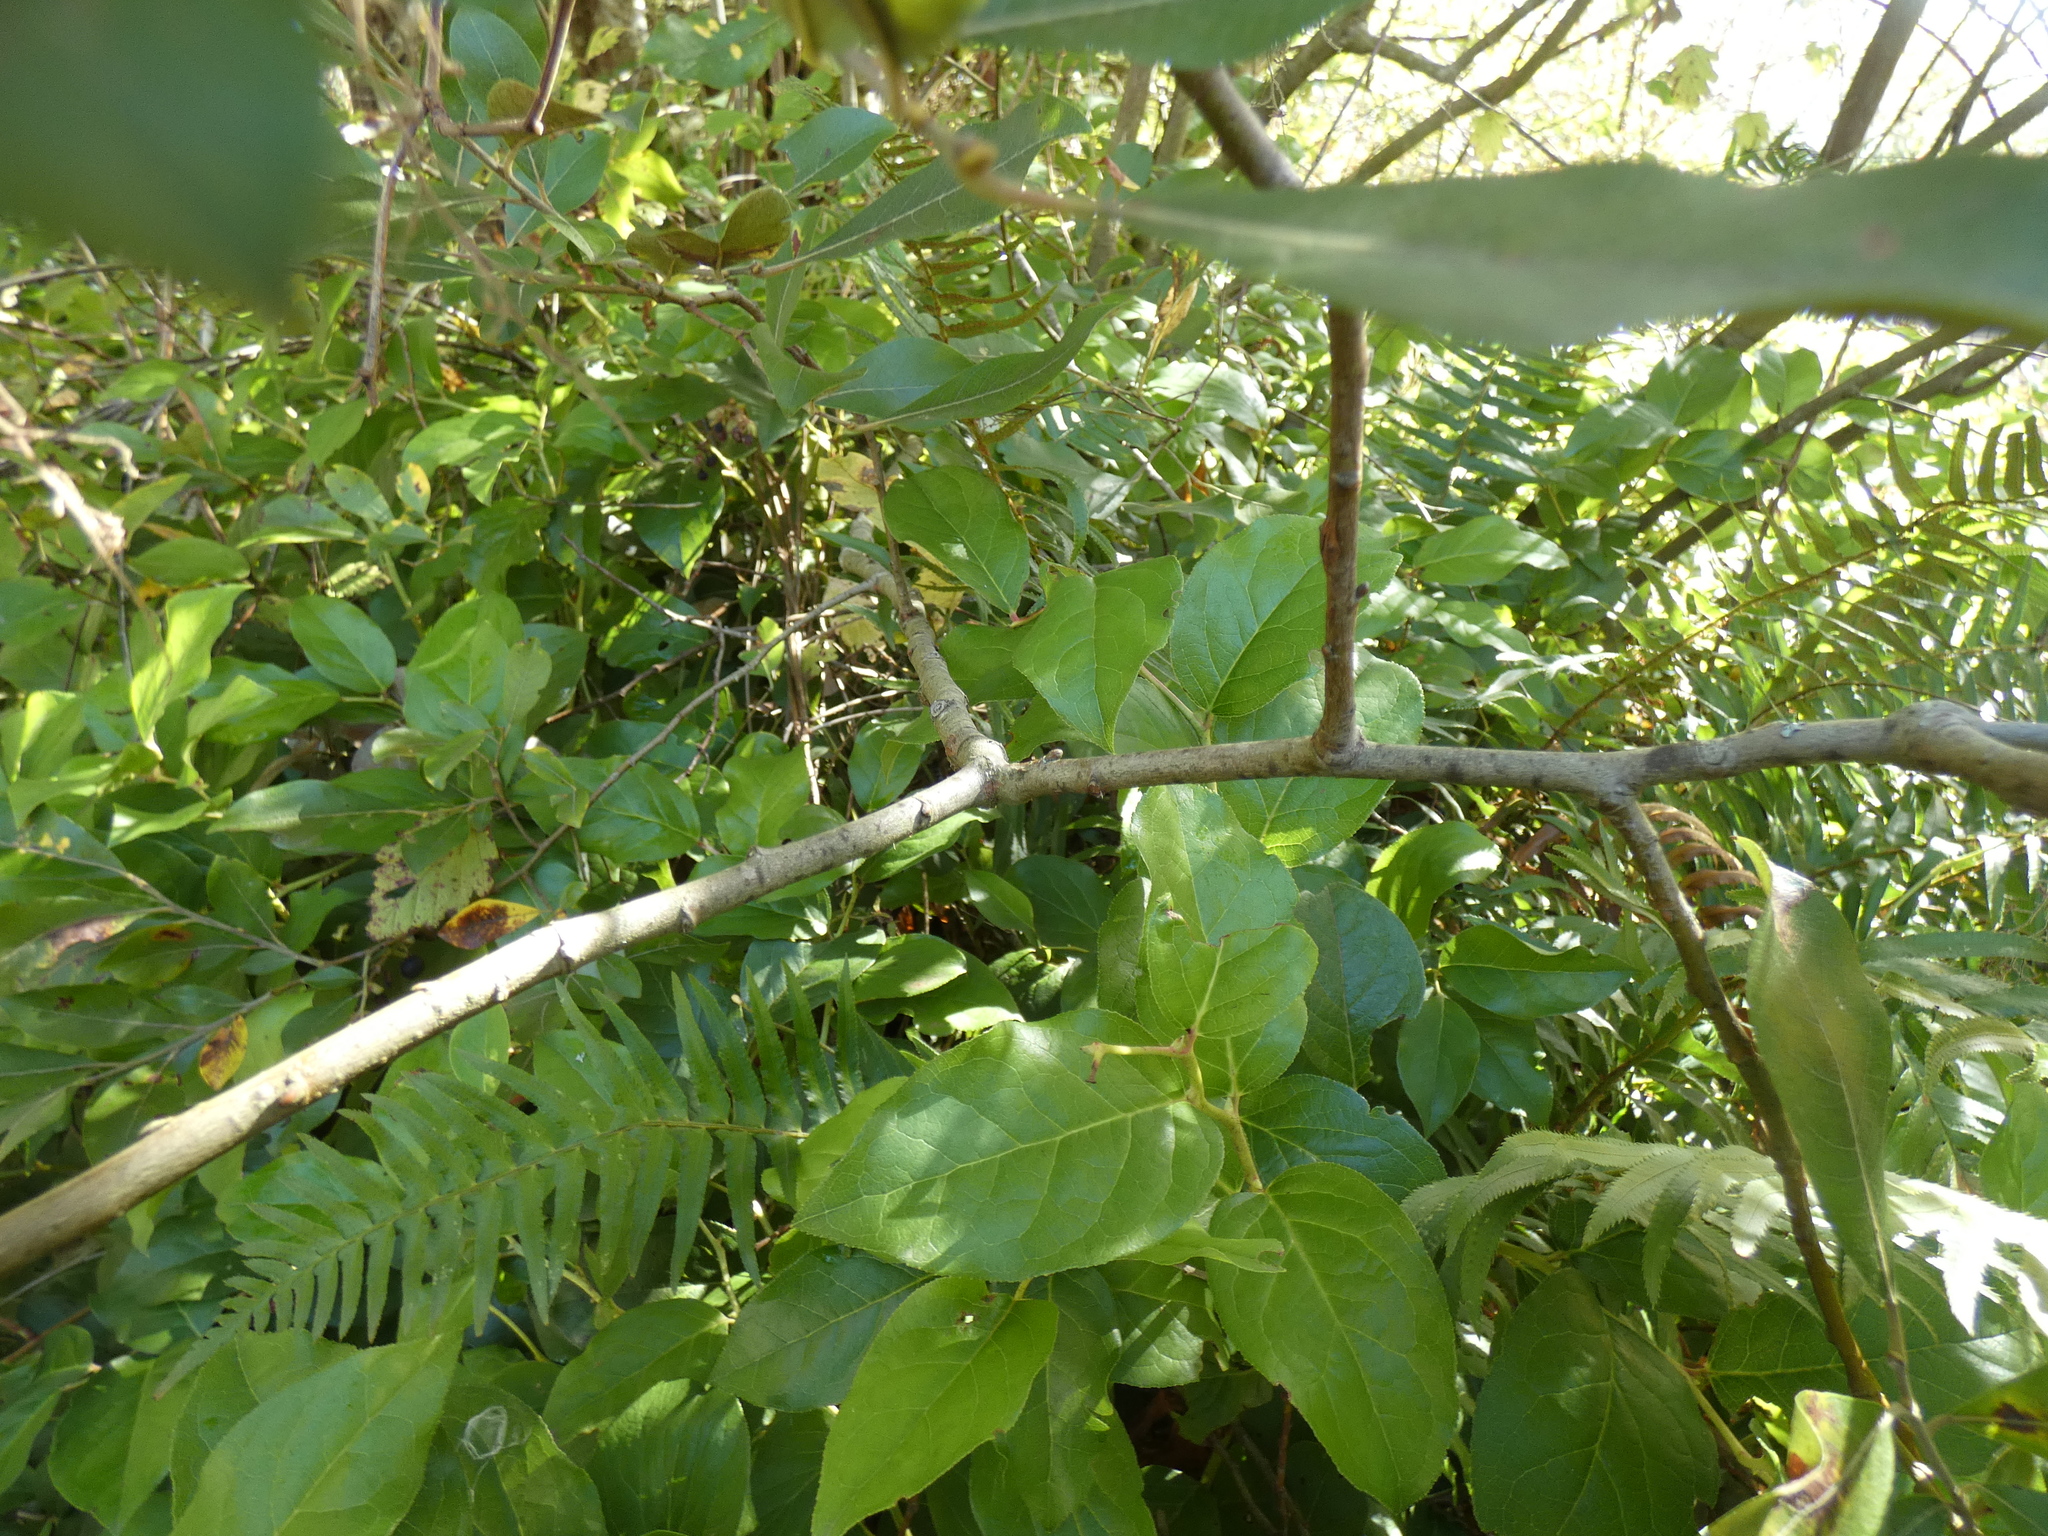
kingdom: Plantae
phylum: Tracheophyta
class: Polypodiopsida
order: Polypodiales
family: Dryopteridaceae
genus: Polystichum
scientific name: Polystichum munitum
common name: Western sword-fern
